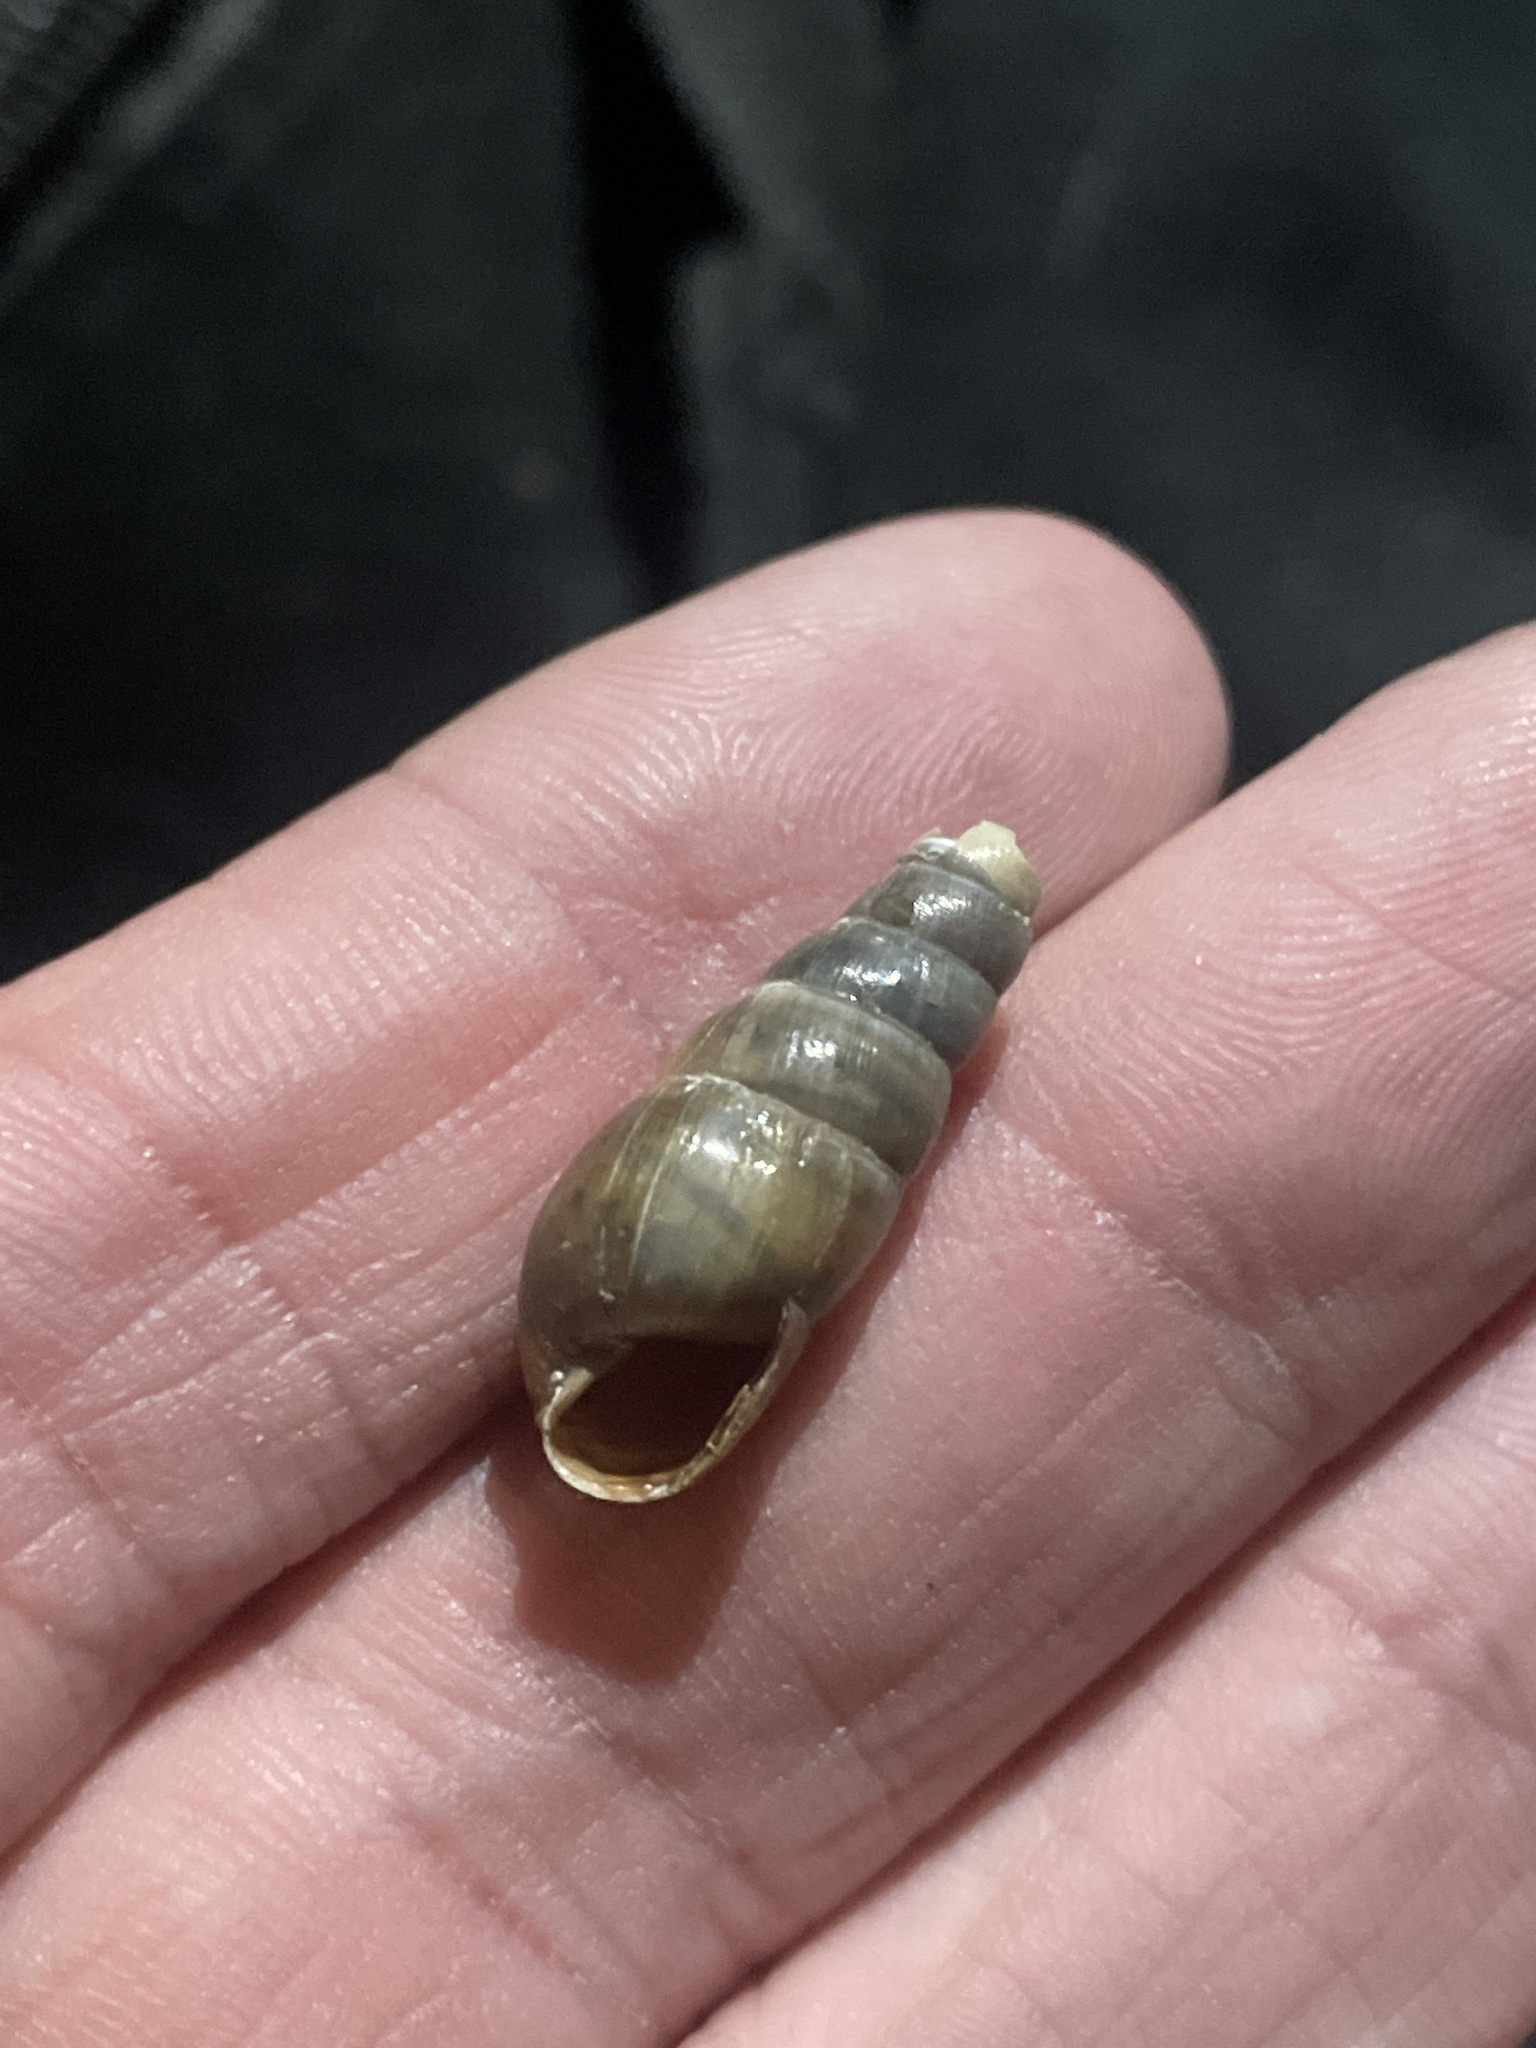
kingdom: Animalia
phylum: Mollusca
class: Gastropoda
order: Stylommatophora
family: Achatinidae
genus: Rumina
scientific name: Rumina decollata
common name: Decollate snail
